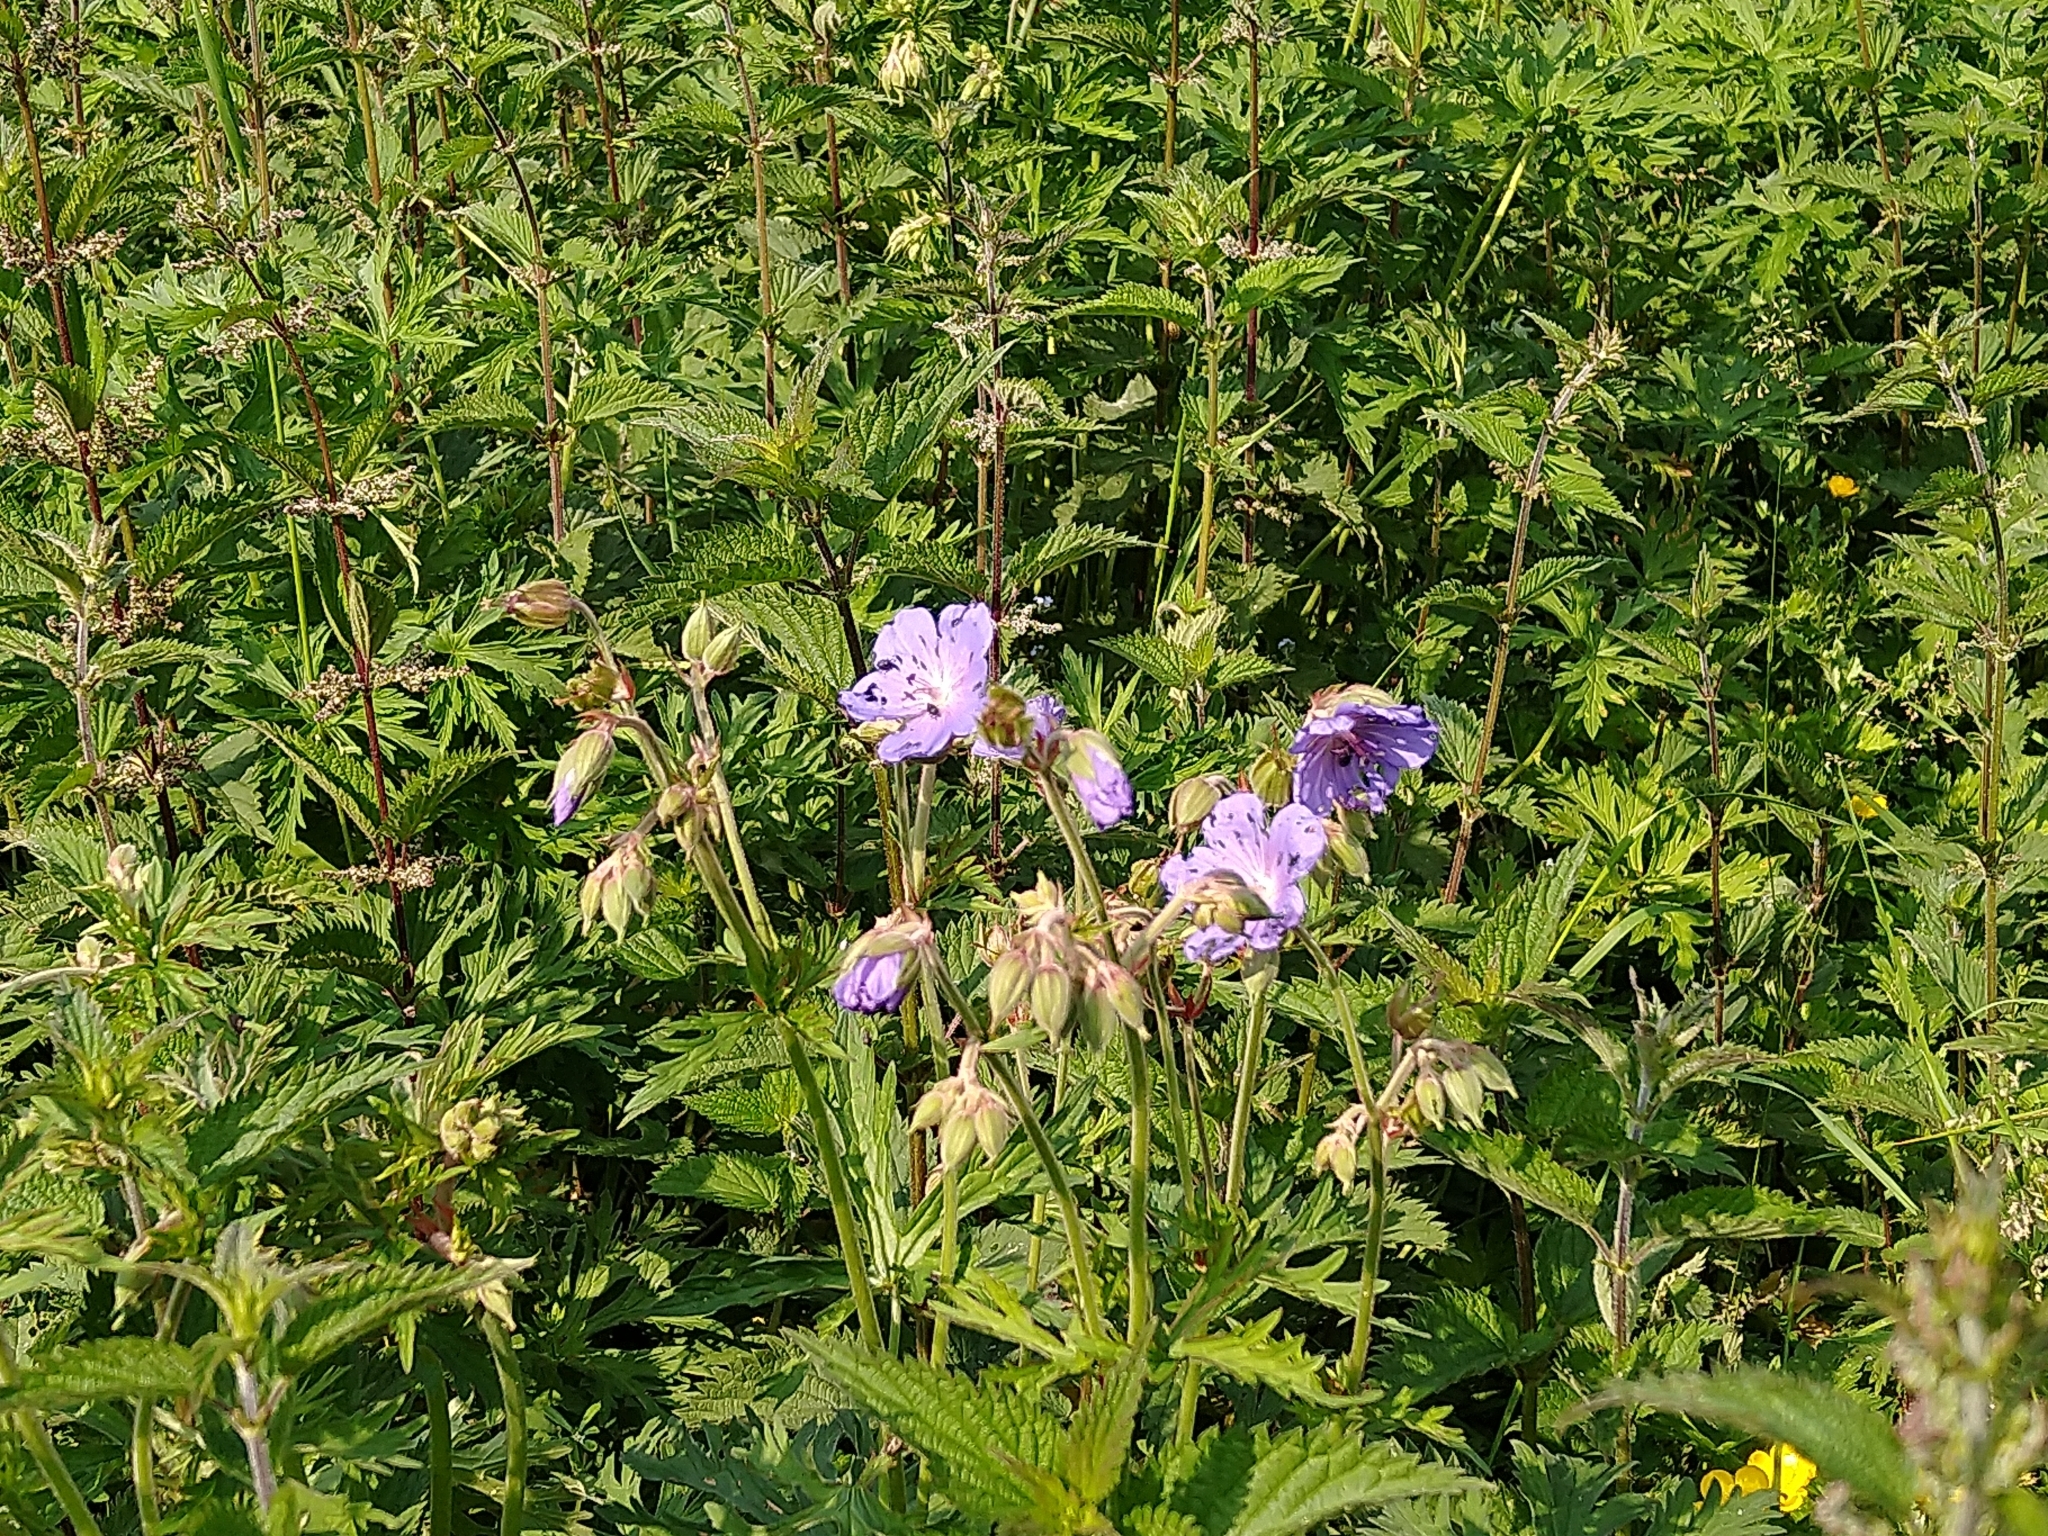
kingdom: Plantae
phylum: Tracheophyta
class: Magnoliopsida
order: Geraniales
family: Geraniaceae
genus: Geranium
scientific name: Geranium pratense
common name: Meadow crane's-bill
